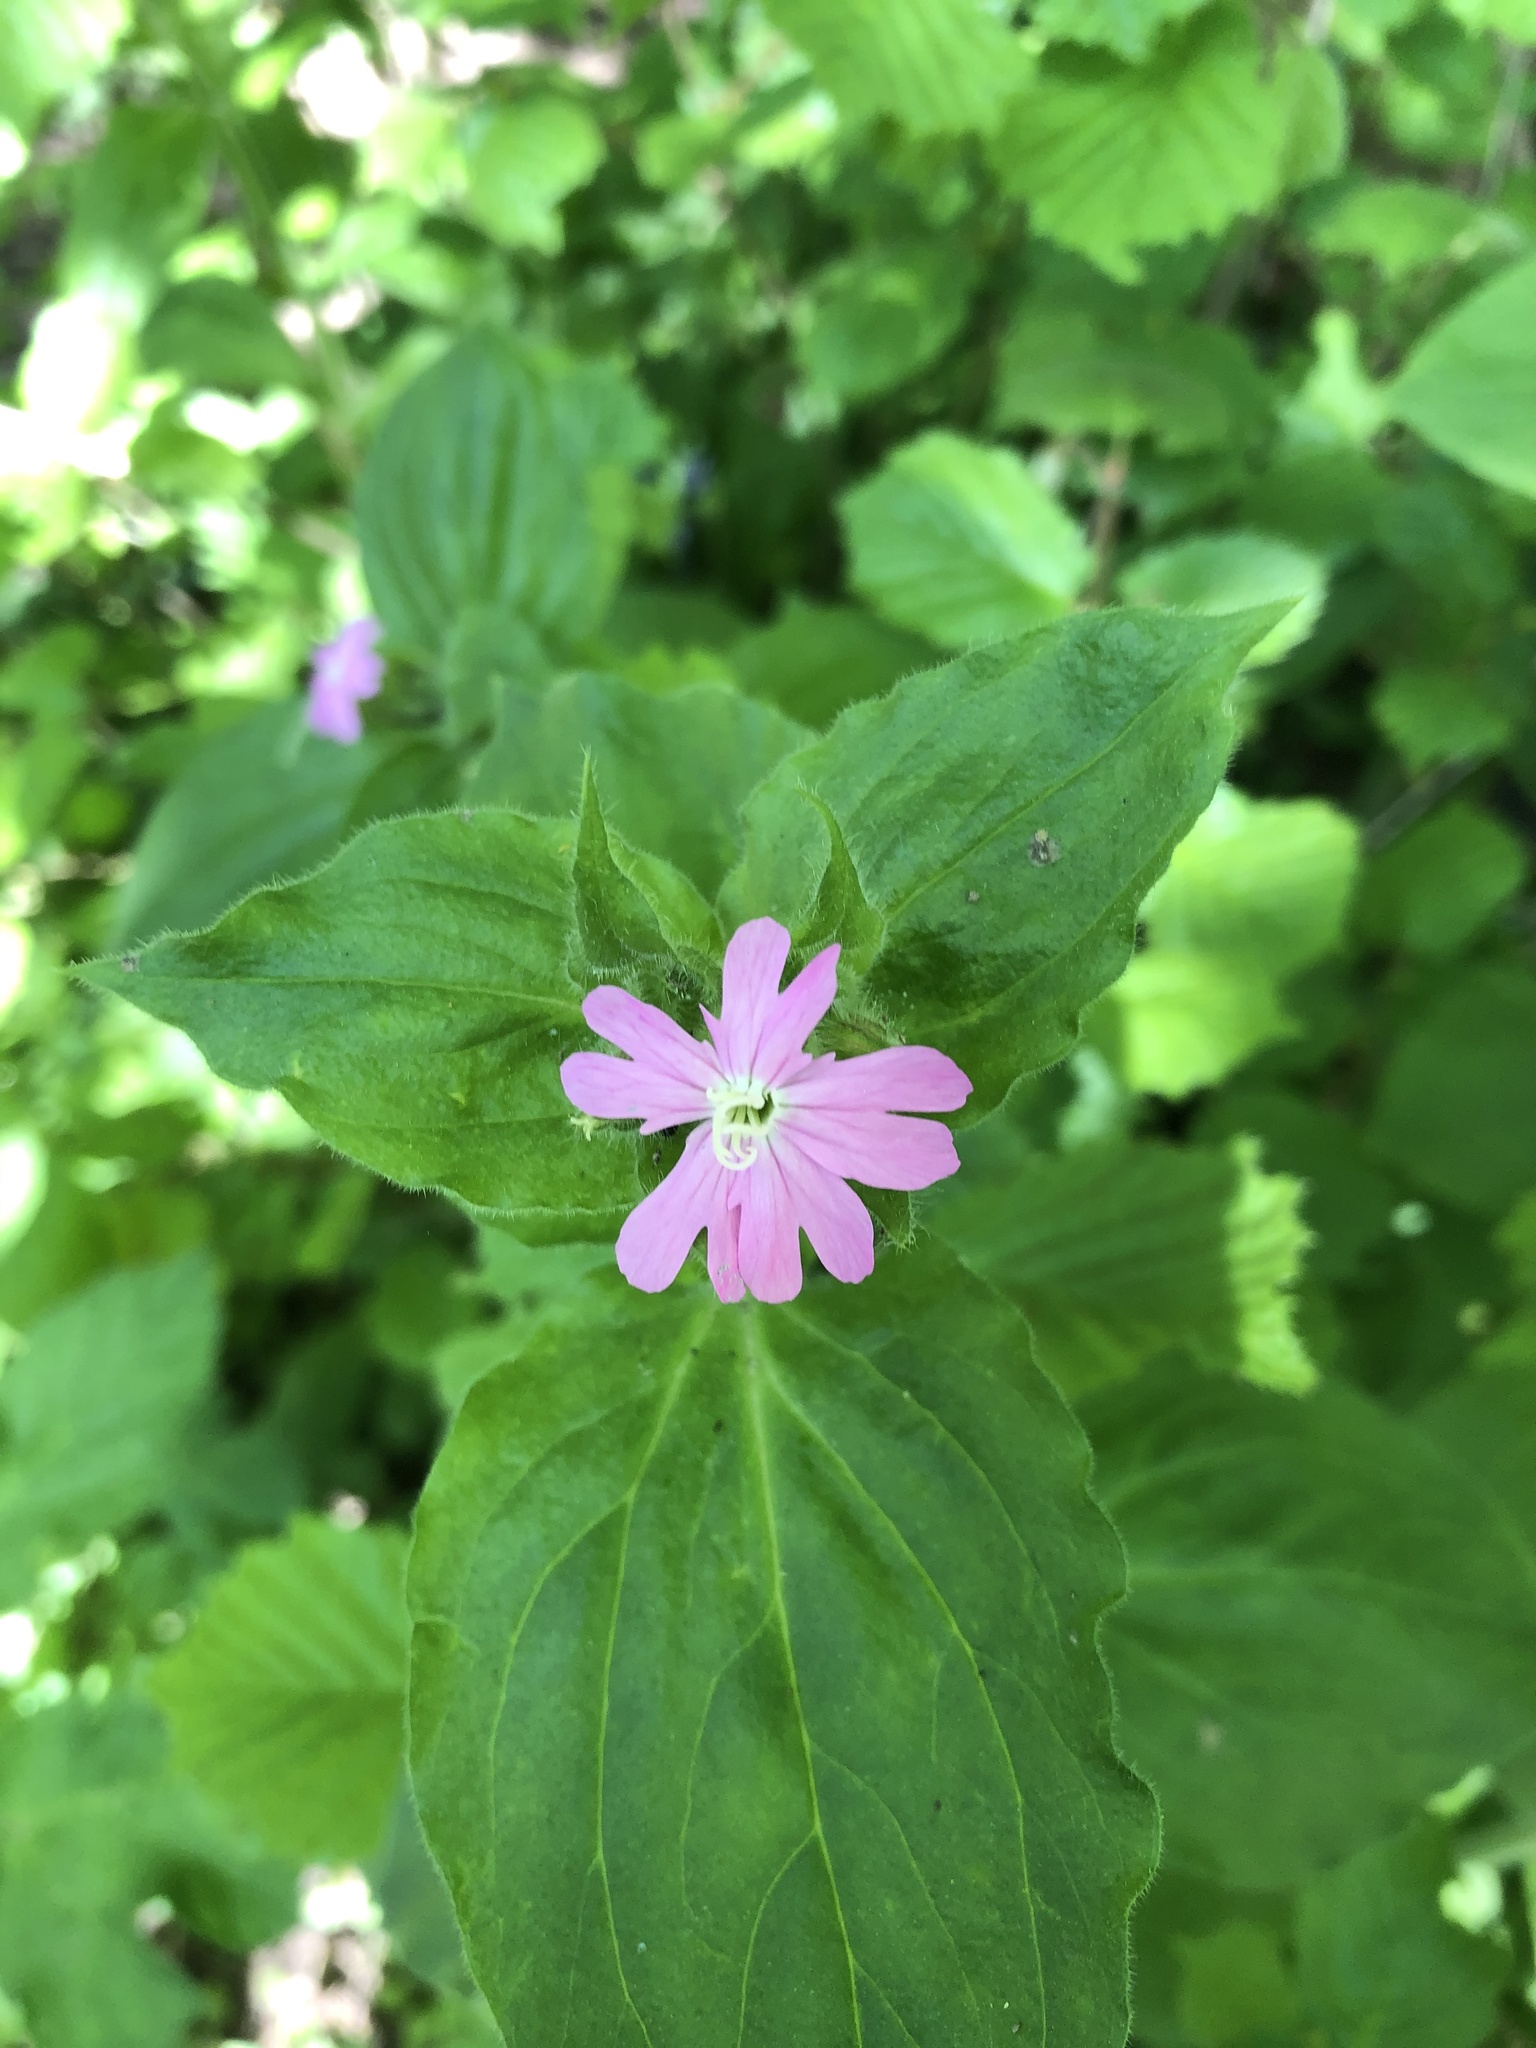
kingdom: Plantae
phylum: Tracheophyta
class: Magnoliopsida
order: Caryophyllales
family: Caryophyllaceae
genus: Silene
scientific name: Silene dioica
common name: Red campion
